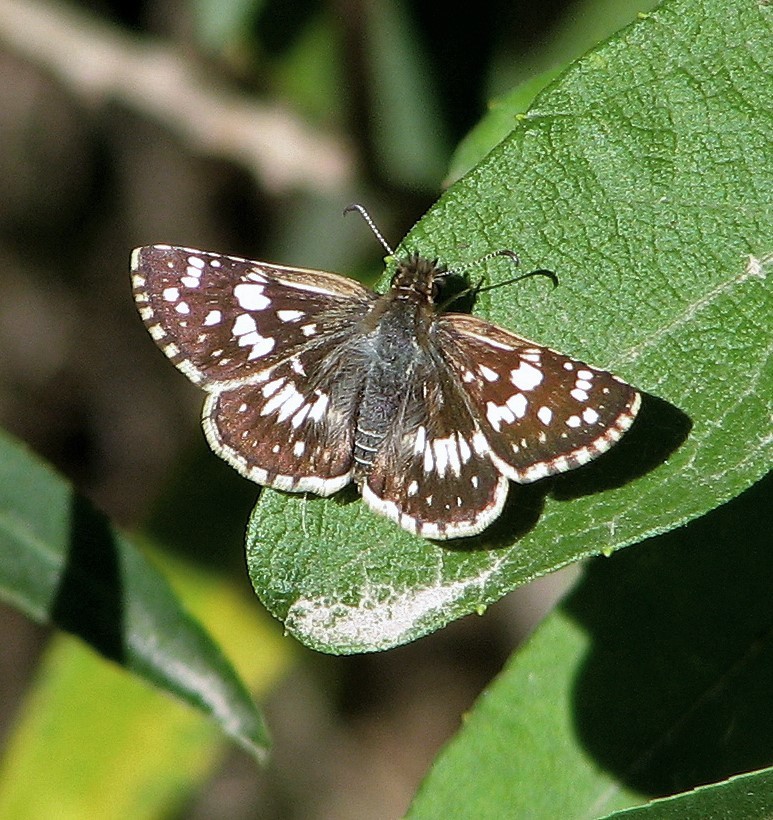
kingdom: Animalia
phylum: Arthropoda
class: Insecta
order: Lepidoptera
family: Hesperiidae
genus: Burnsius
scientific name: Burnsius orcynoides
